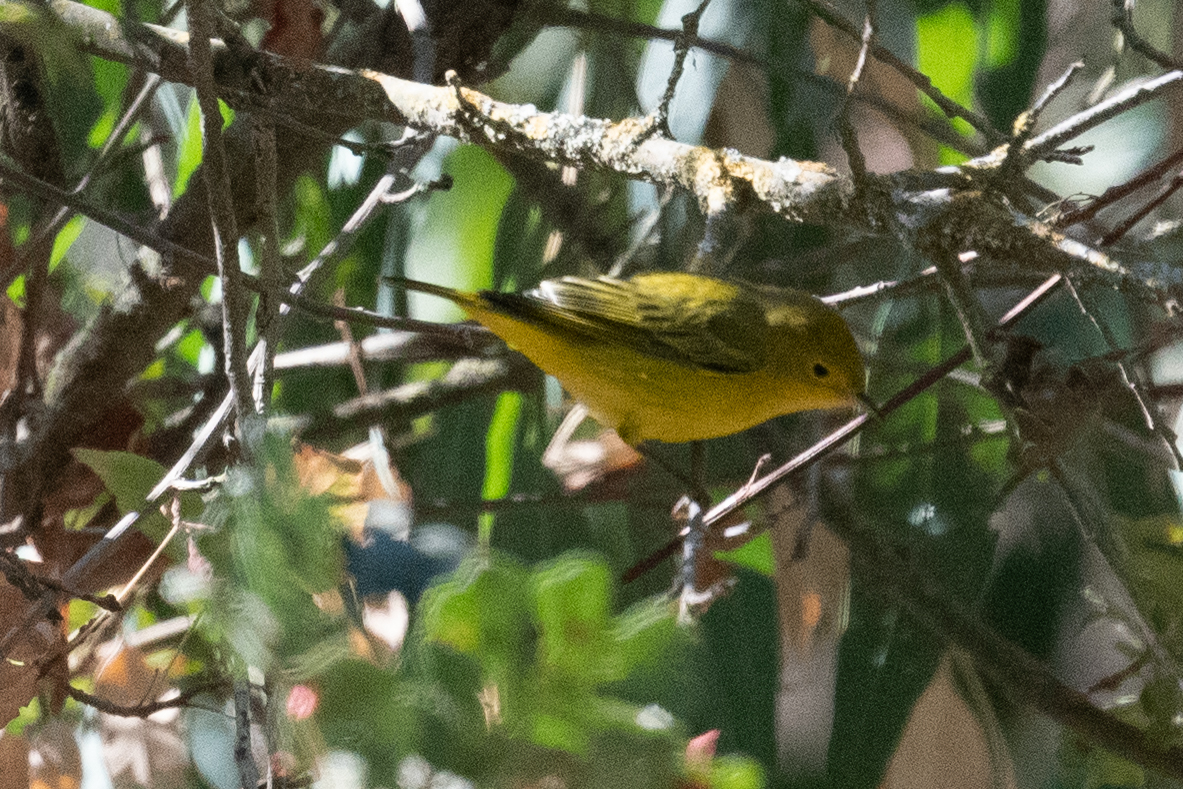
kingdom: Animalia
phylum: Chordata
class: Aves
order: Passeriformes
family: Parulidae
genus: Setophaga
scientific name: Setophaga petechia
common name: Yellow warbler
